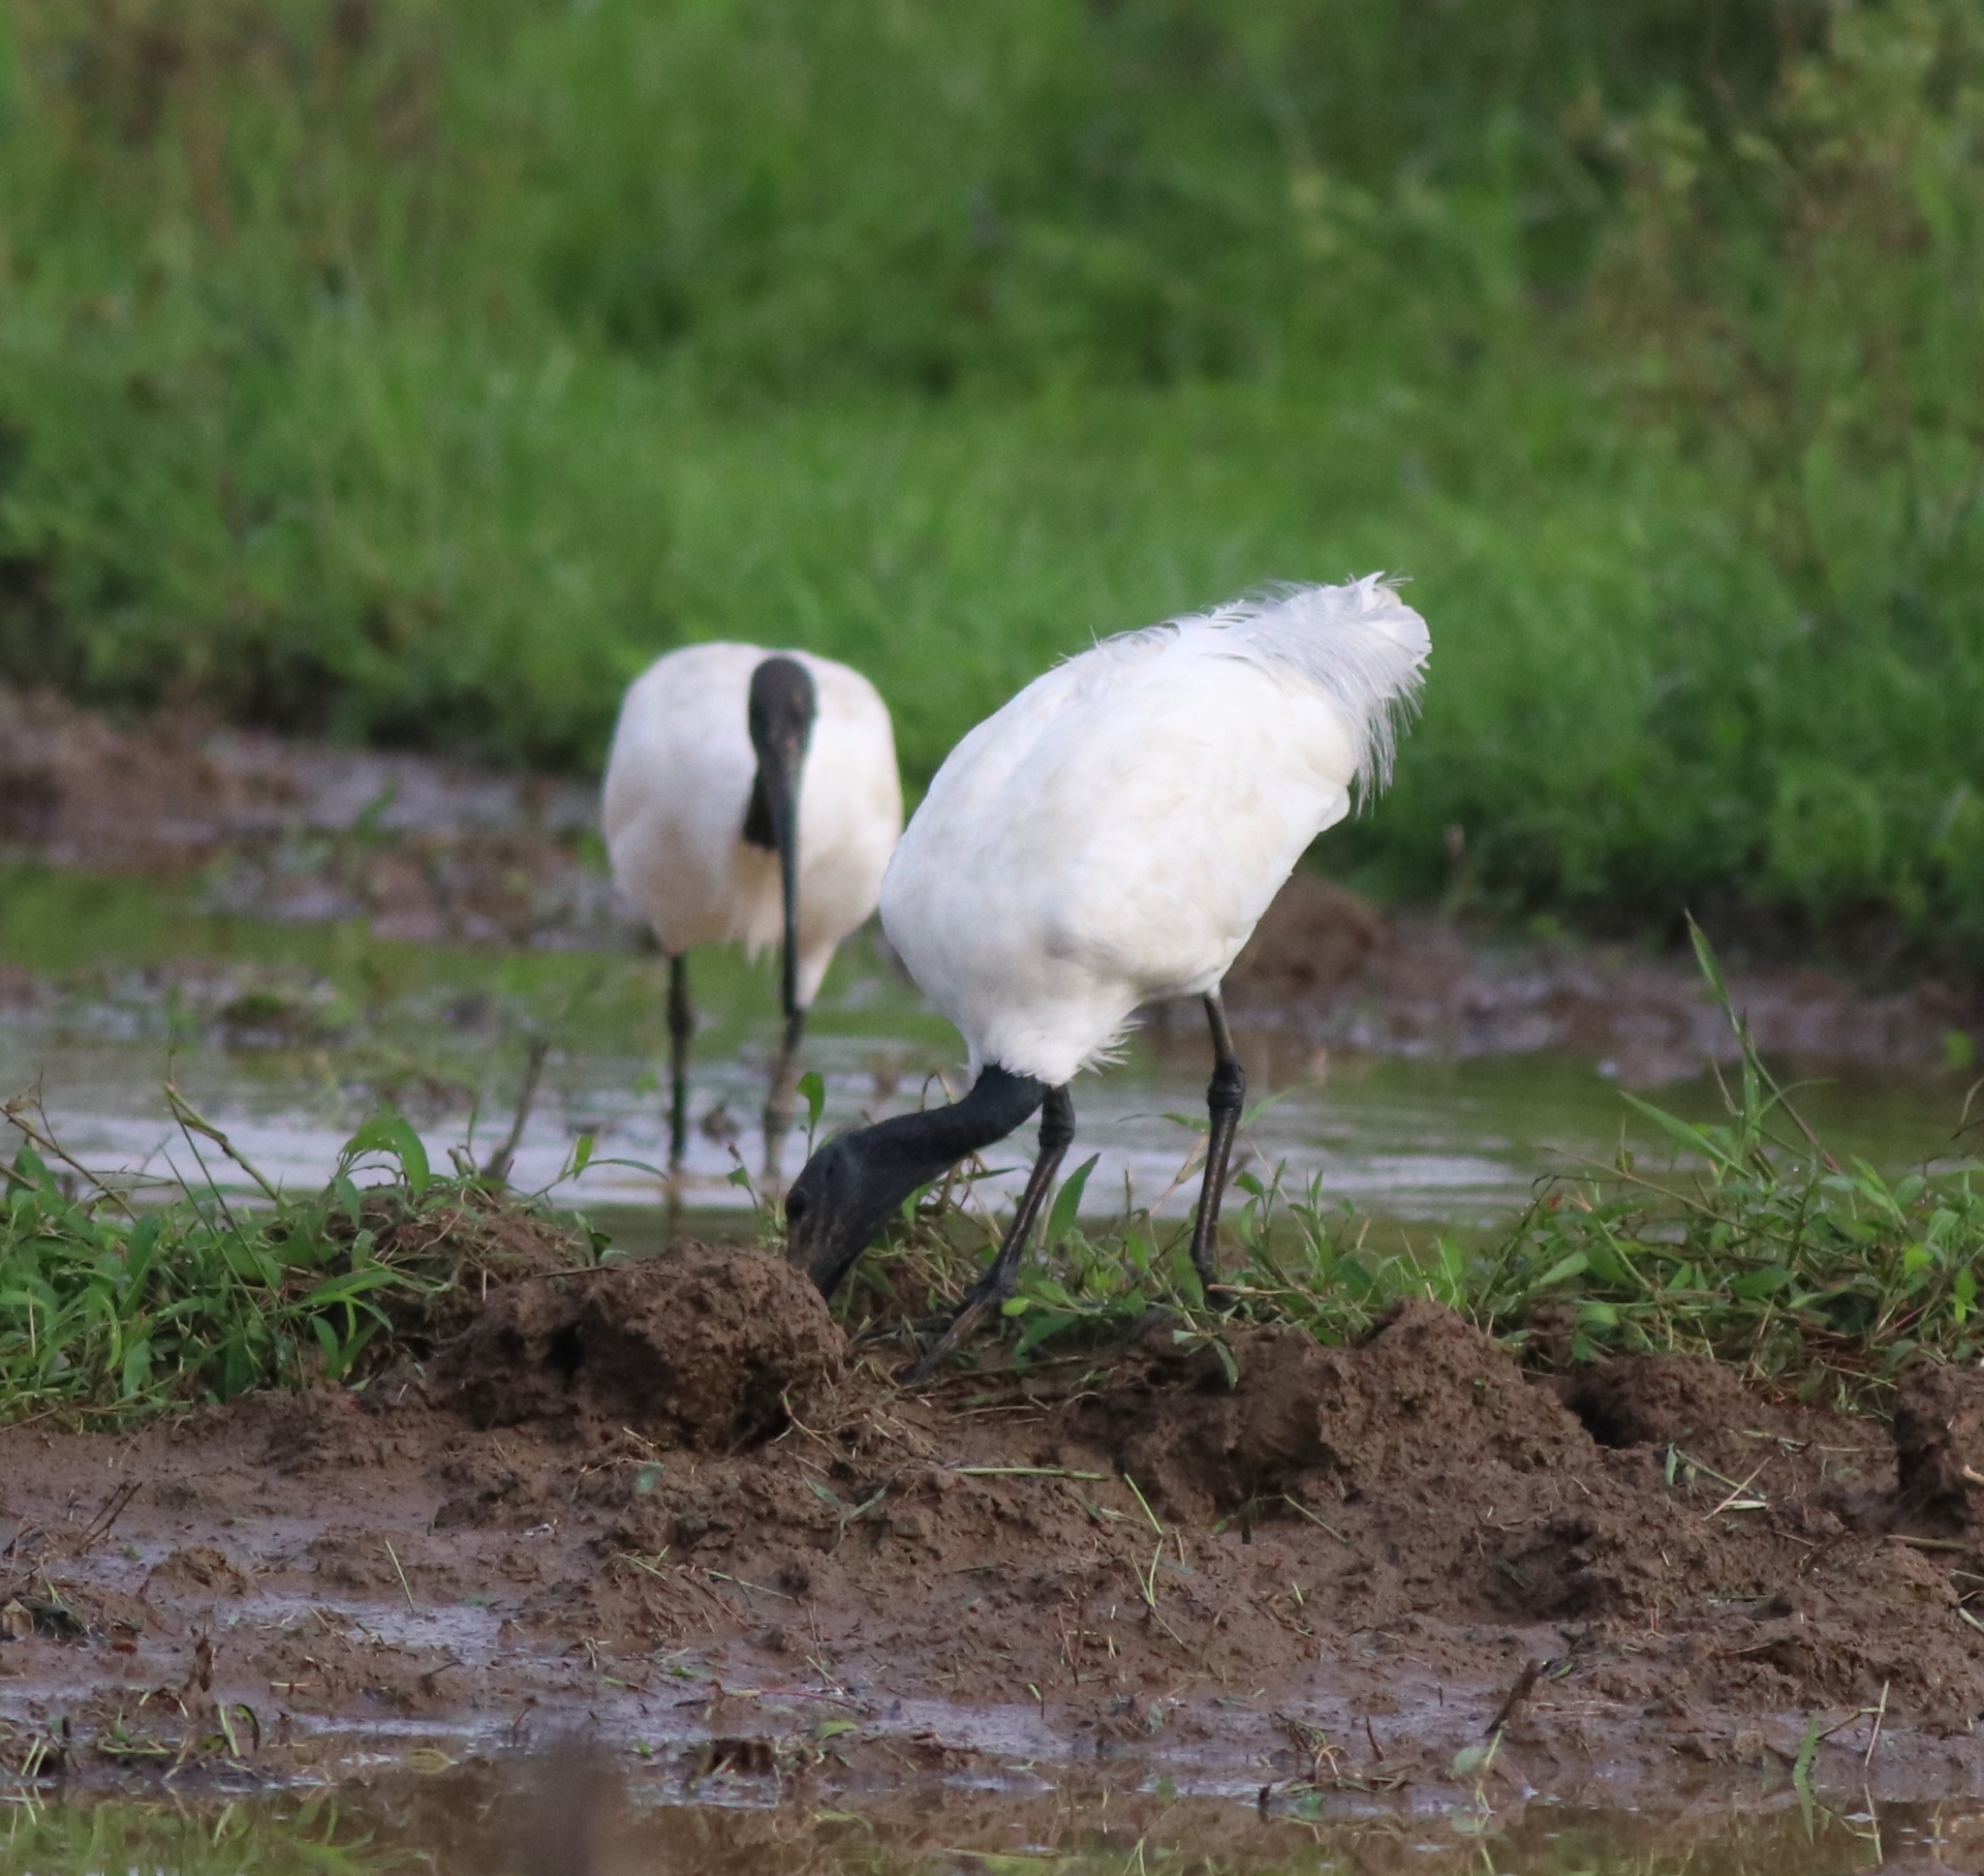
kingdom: Animalia
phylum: Chordata
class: Aves
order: Pelecaniformes
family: Threskiornithidae
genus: Threskiornis
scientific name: Threskiornis melanocephalus
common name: Black-headed ibis
